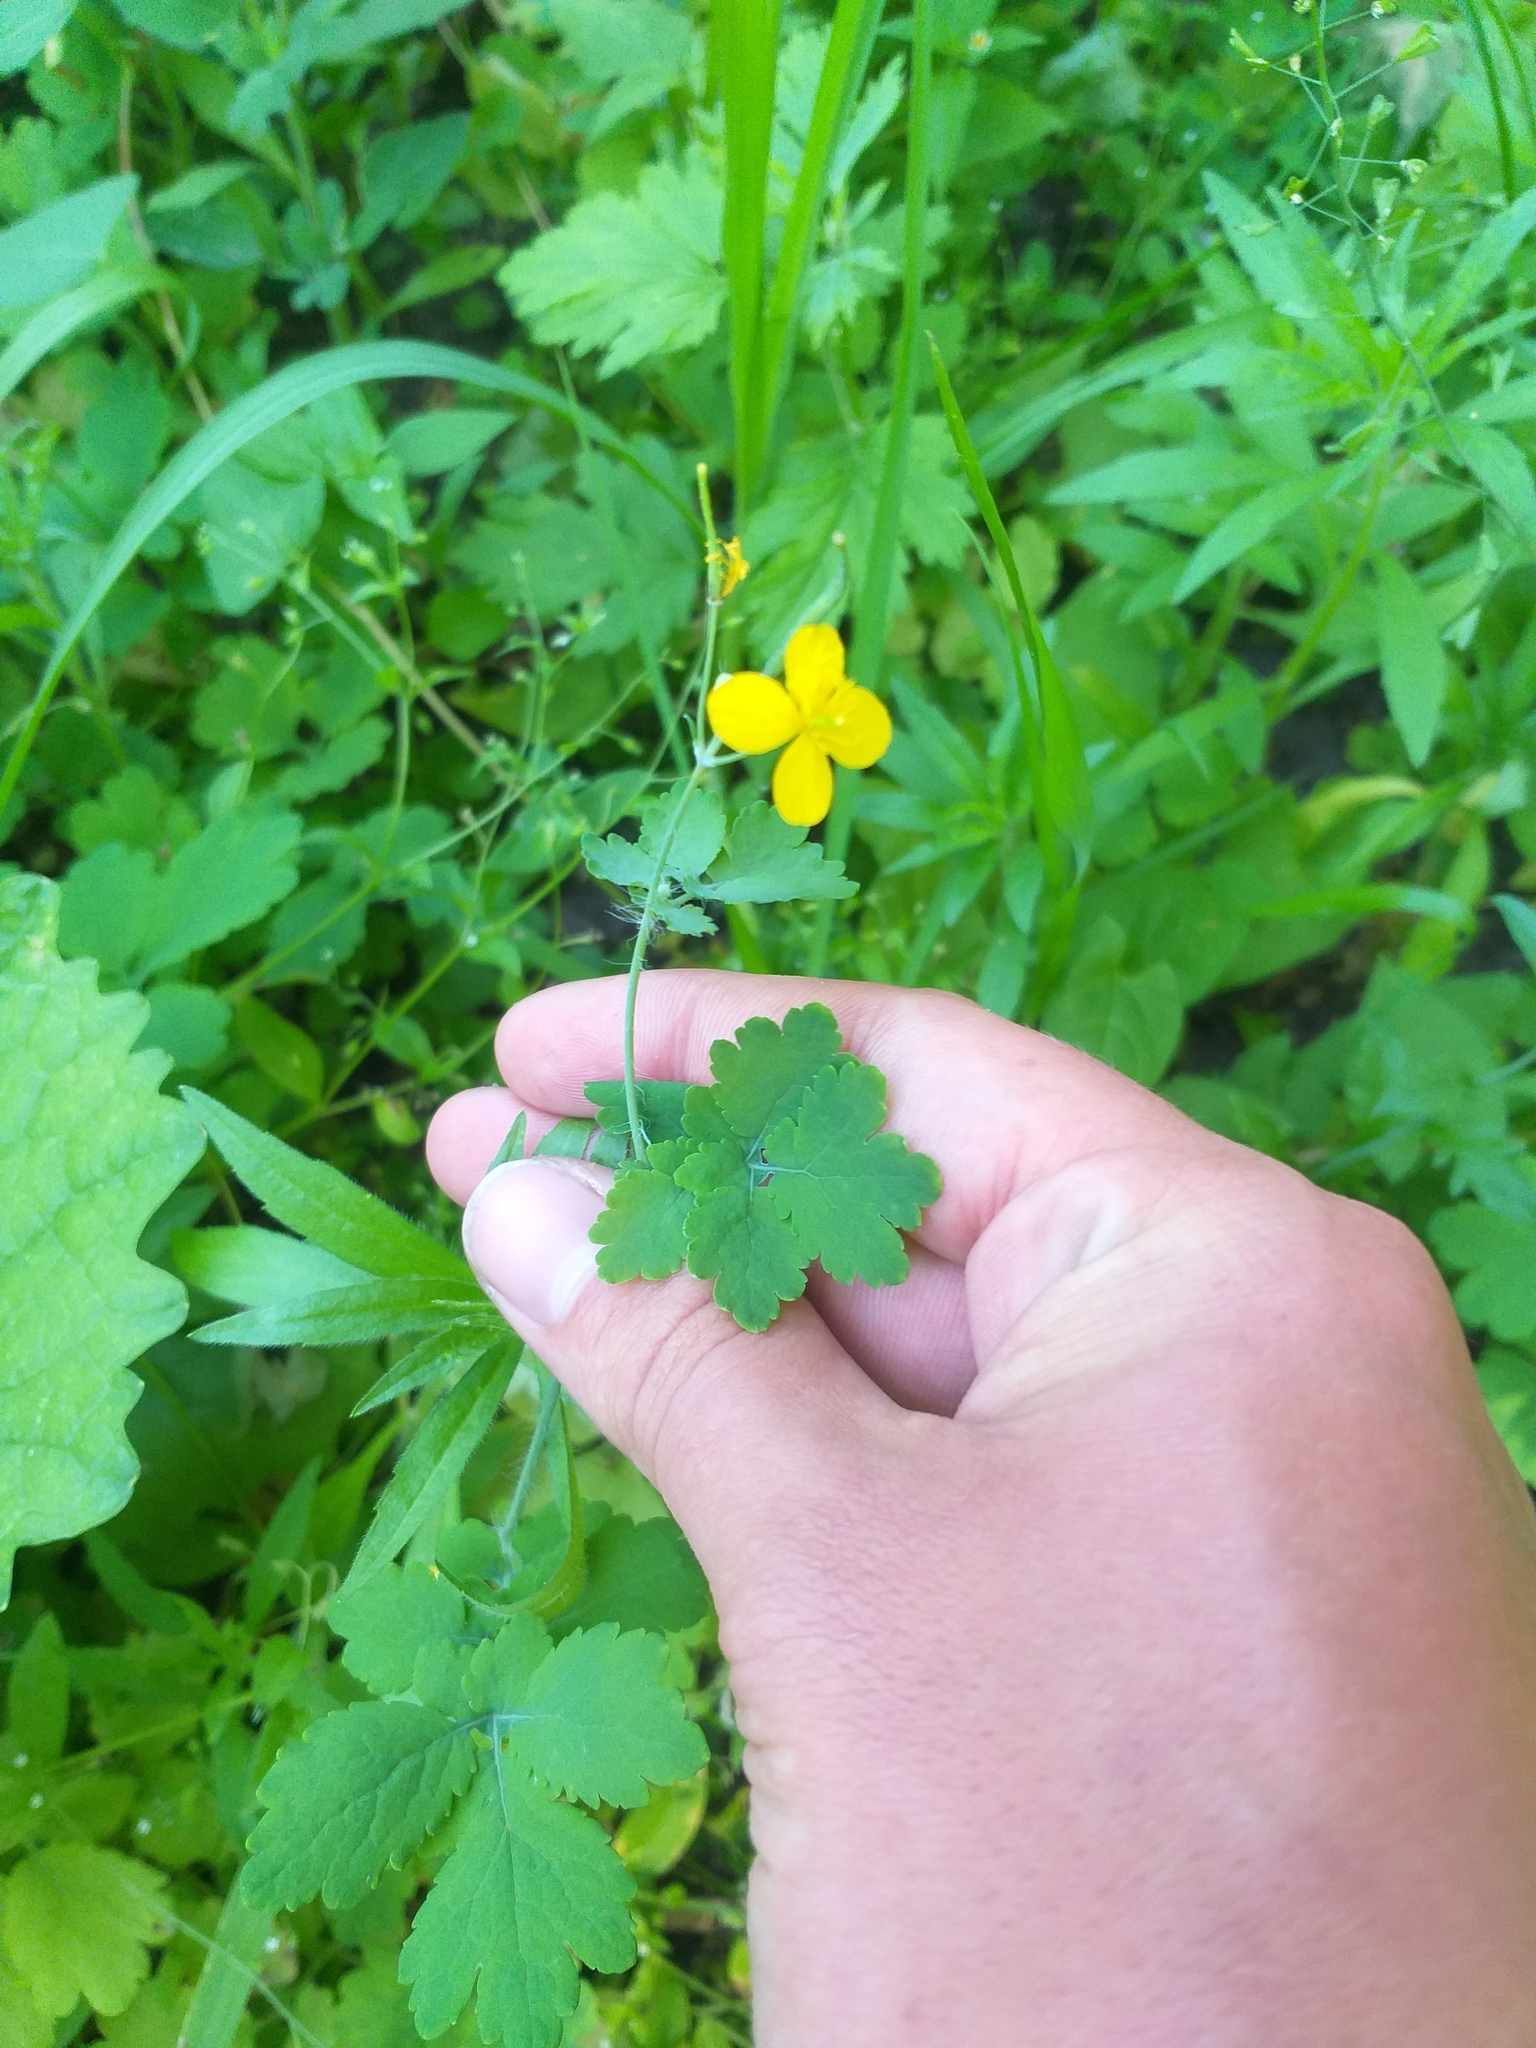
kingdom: Plantae
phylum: Tracheophyta
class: Magnoliopsida
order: Ranunculales
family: Papaveraceae
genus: Chelidonium
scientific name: Chelidonium majus
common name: Greater celandine
